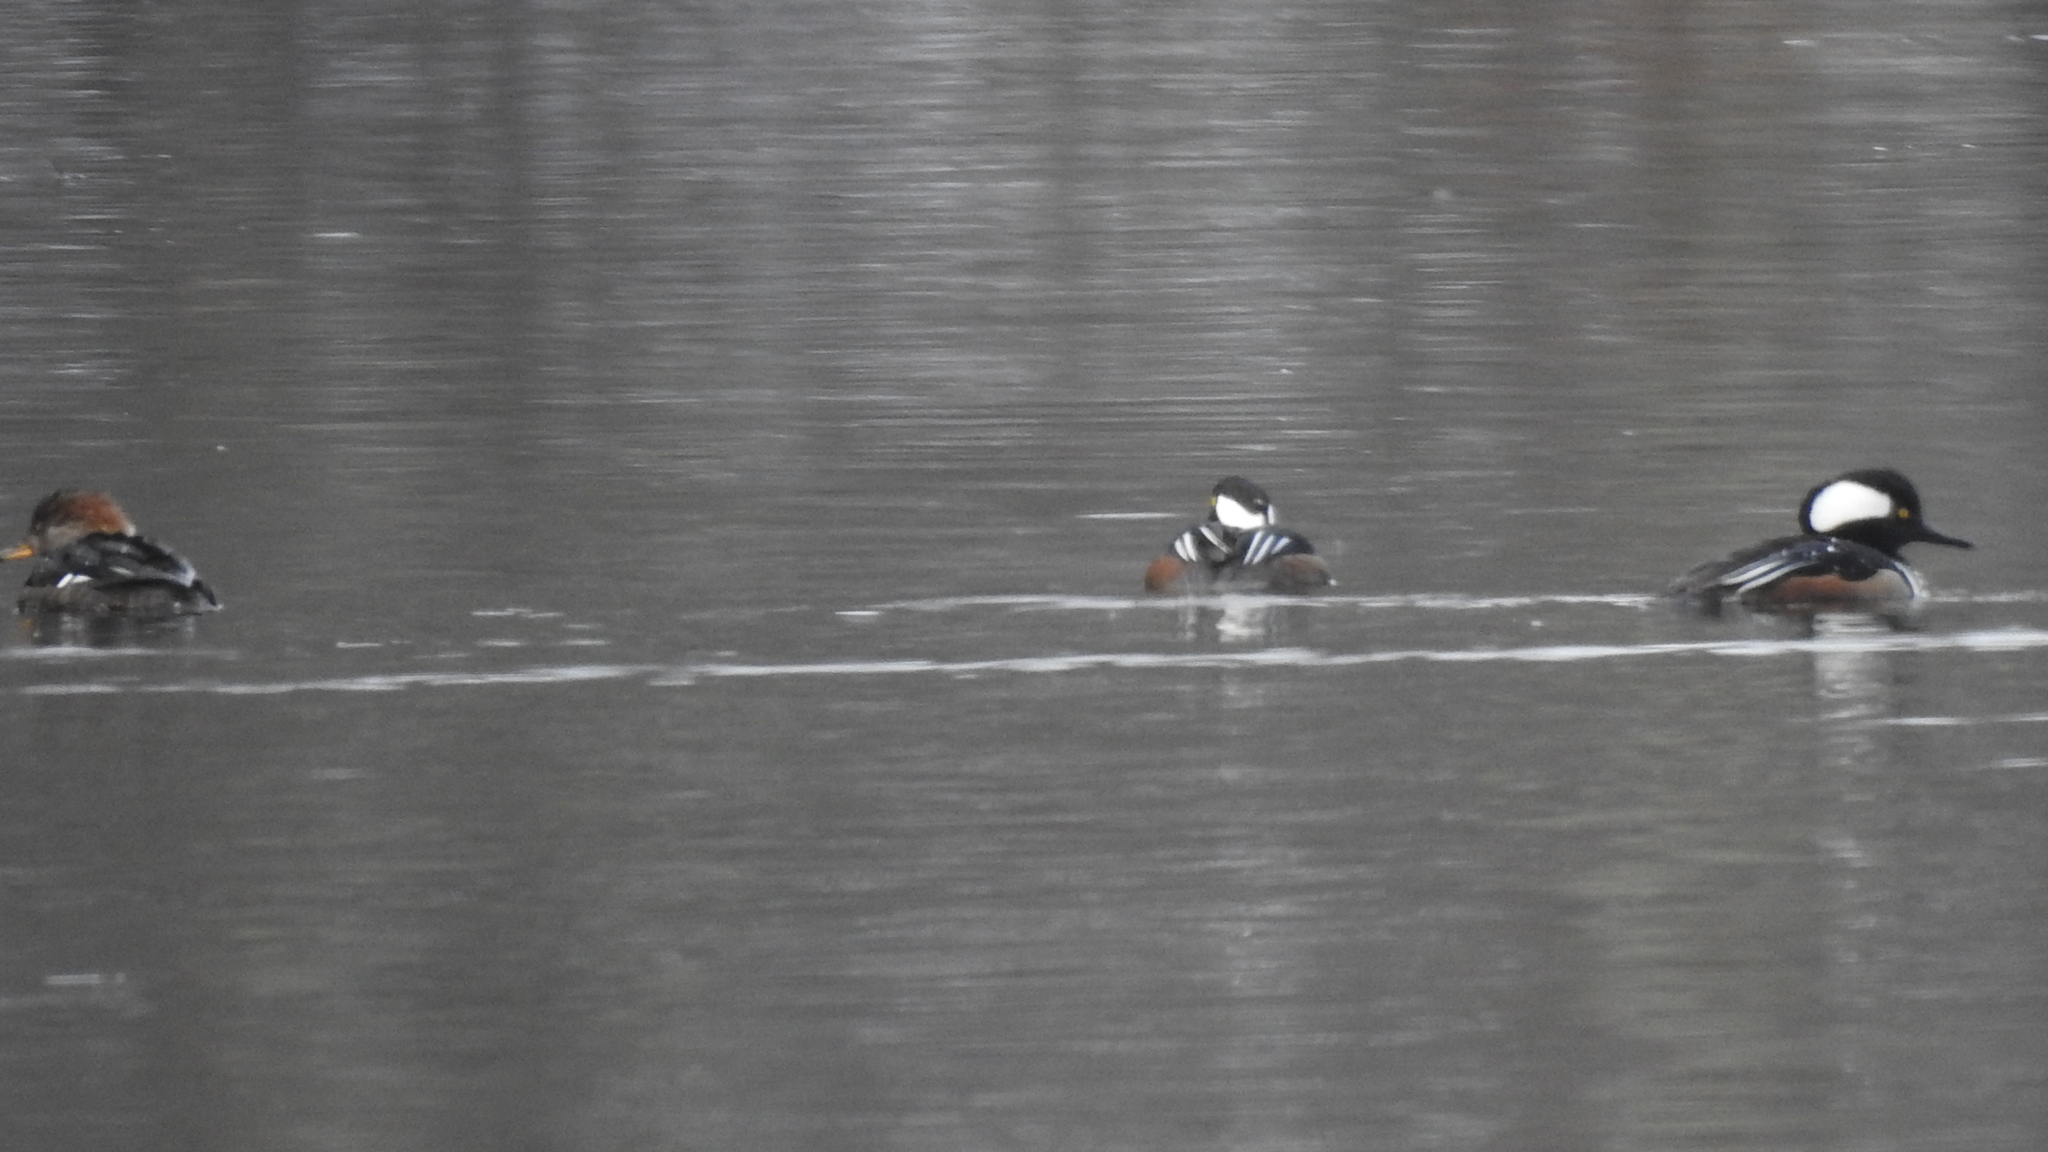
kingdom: Animalia
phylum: Chordata
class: Aves
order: Anseriformes
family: Anatidae
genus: Lophodytes
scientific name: Lophodytes cucullatus
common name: Hooded merganser
